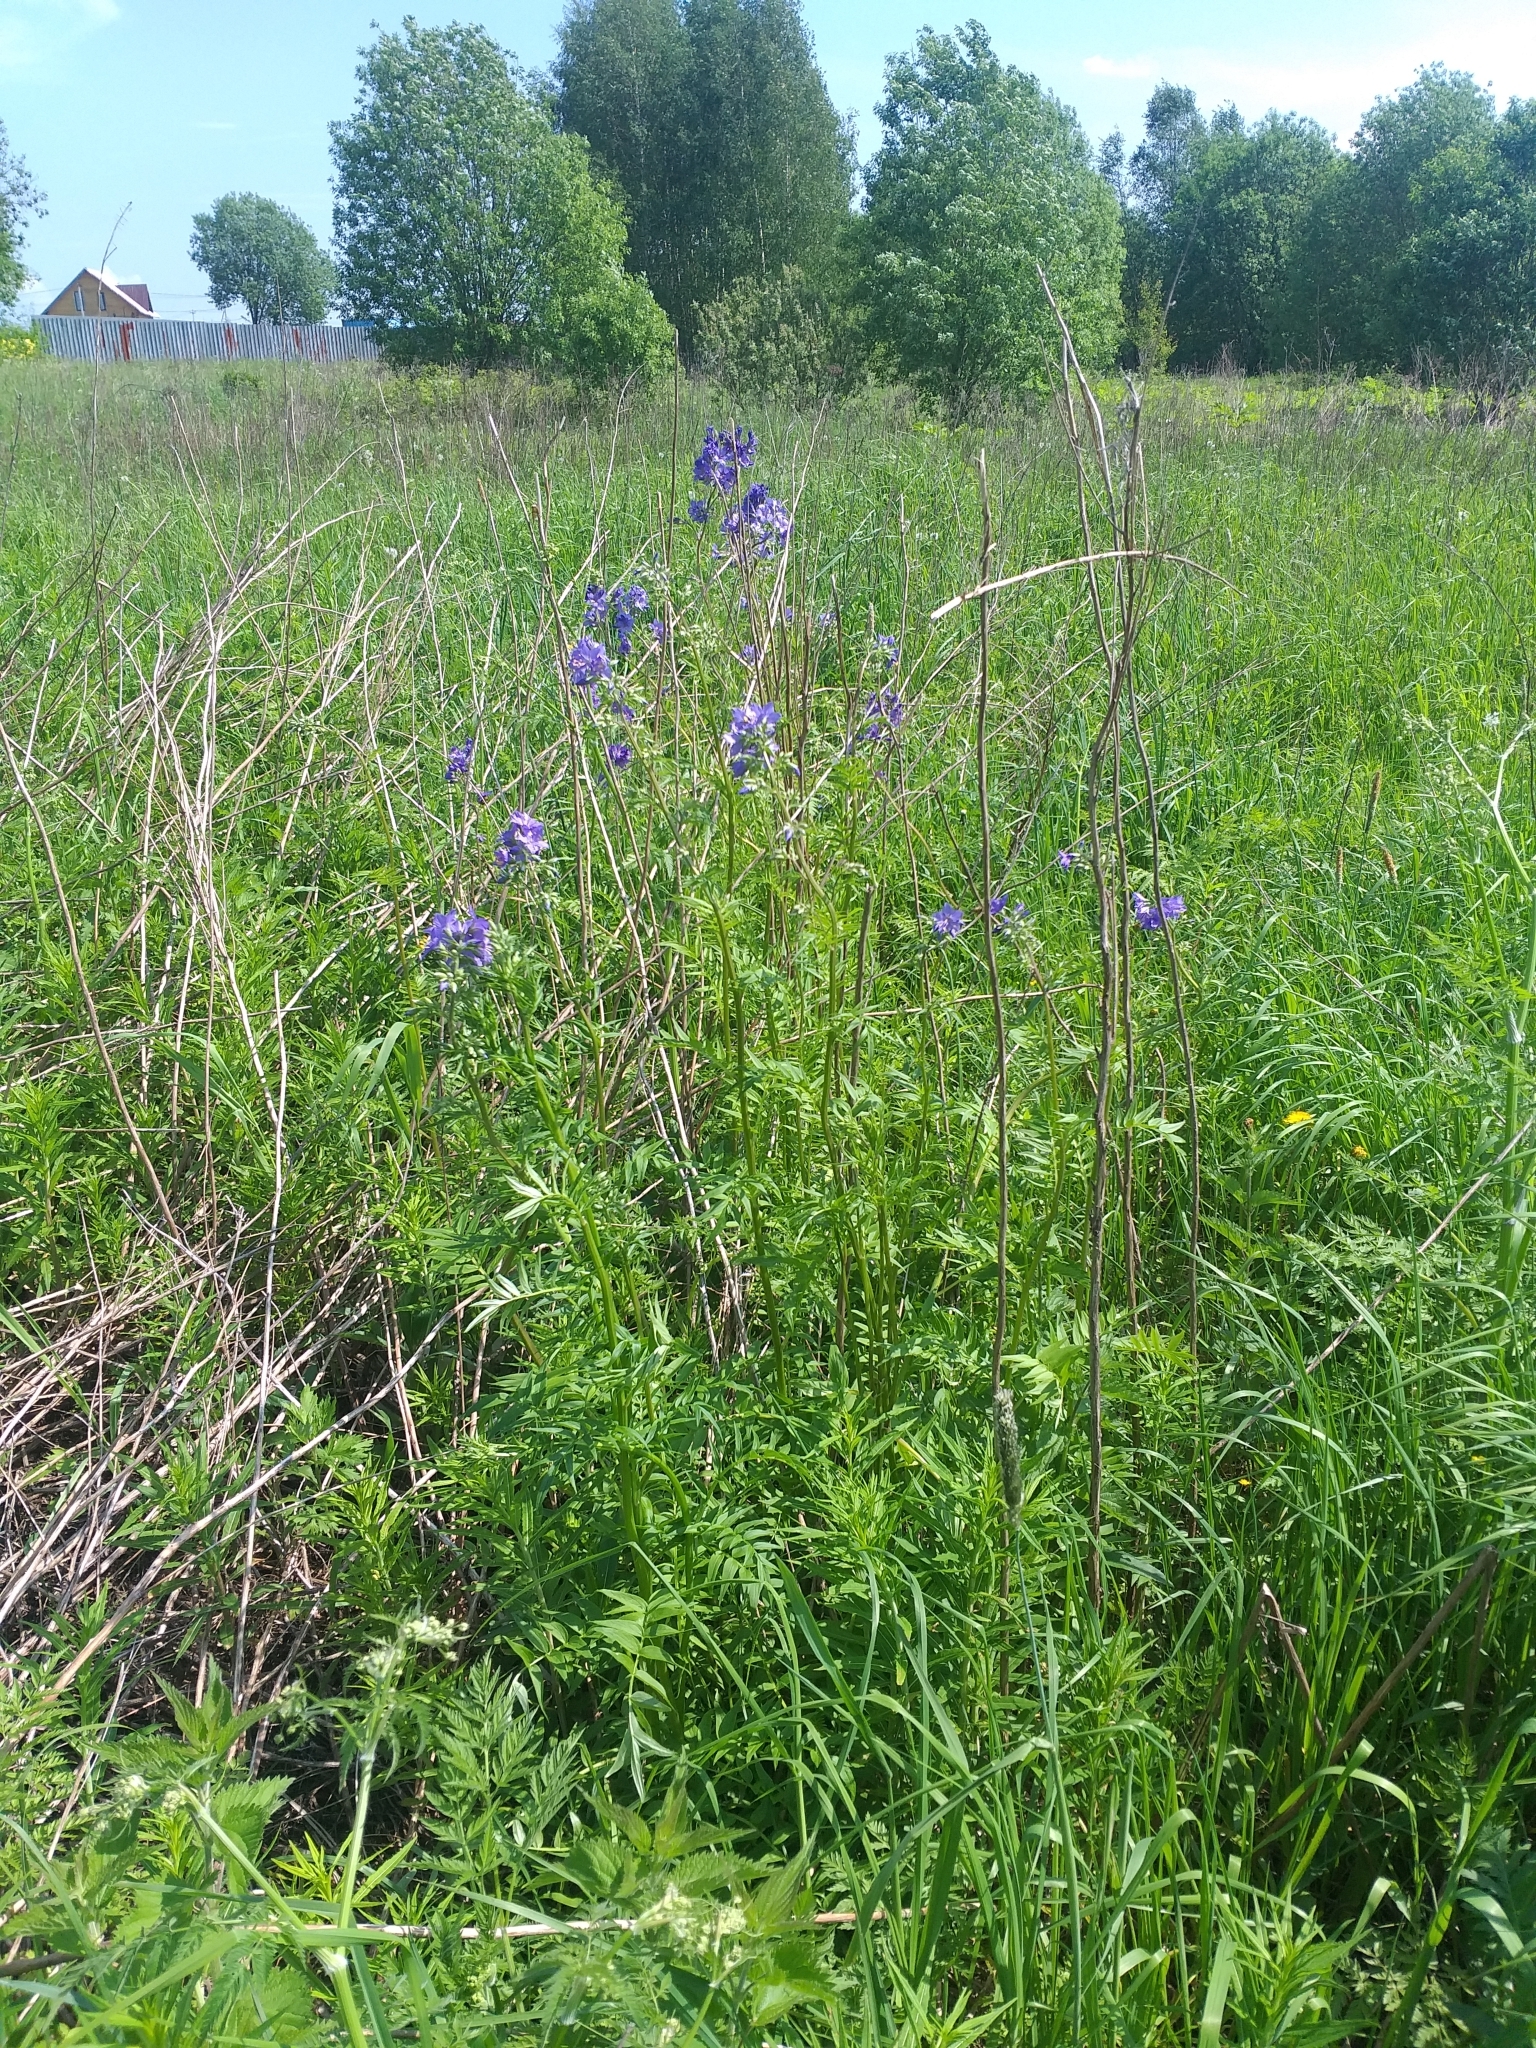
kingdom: Plantae
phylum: Tracheophyta
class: Magnoliopsida
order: Ericales
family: Polemoniaceae
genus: Polemonium
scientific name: Polemonium caeruleum
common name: Jacob's-ladder
